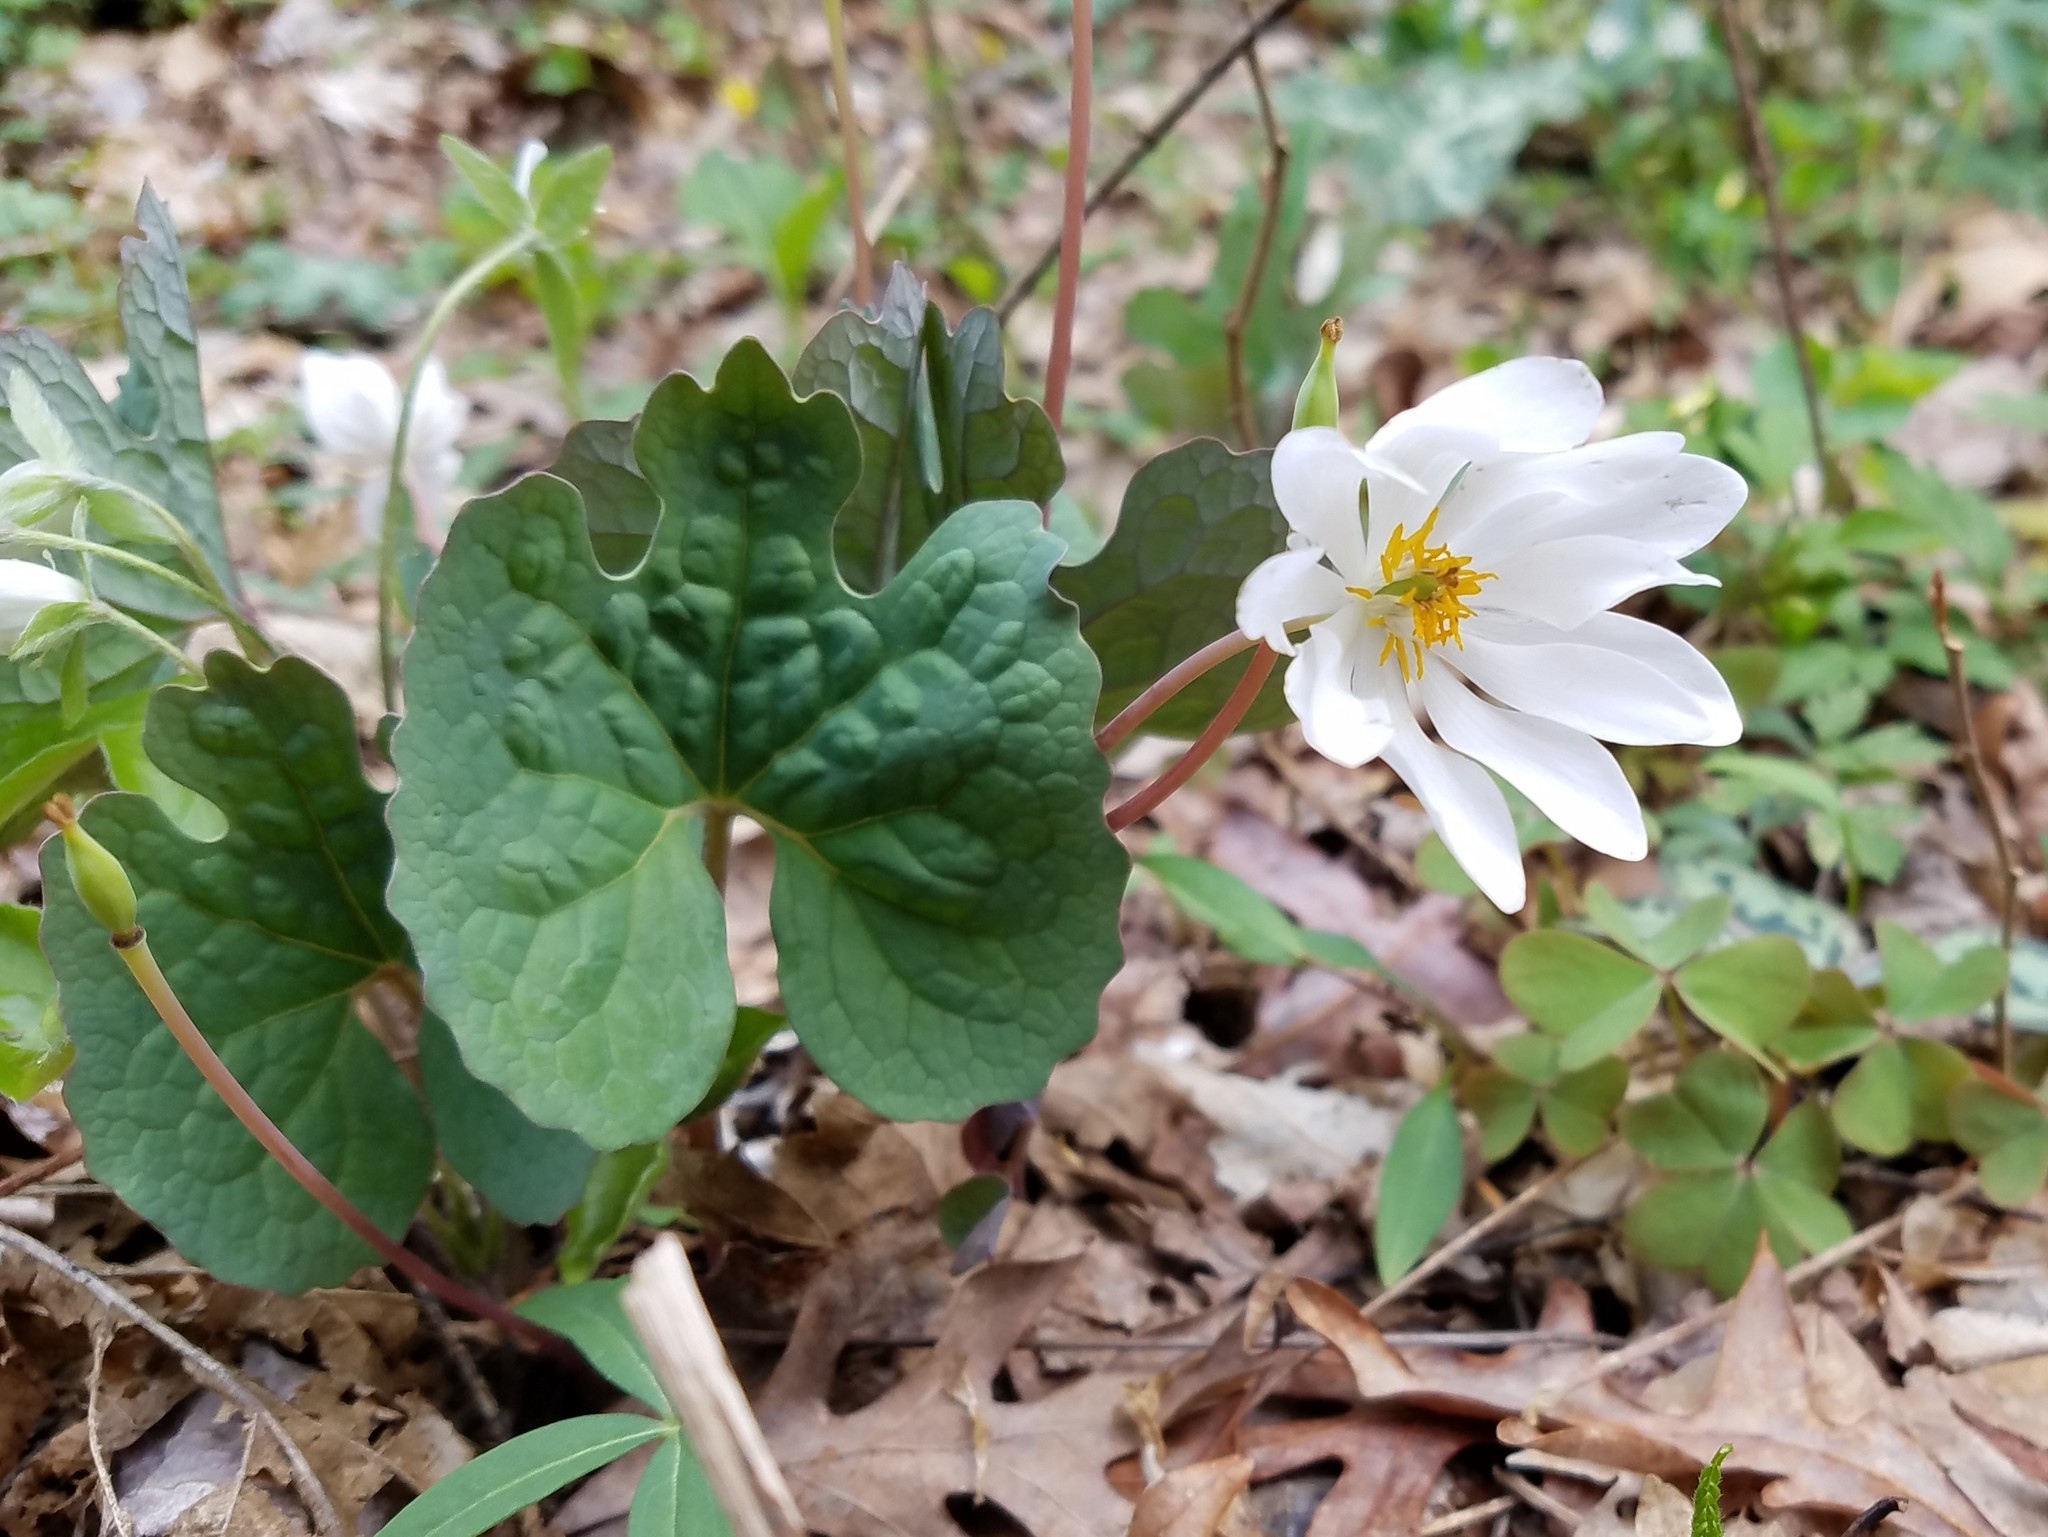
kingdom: Plantae
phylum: Tracheophyta
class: Magnoliopsida
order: Ranunculales
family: Papaveraceae
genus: Sanguinaria
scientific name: Sanguinaria canadensis
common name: Bloodroot
